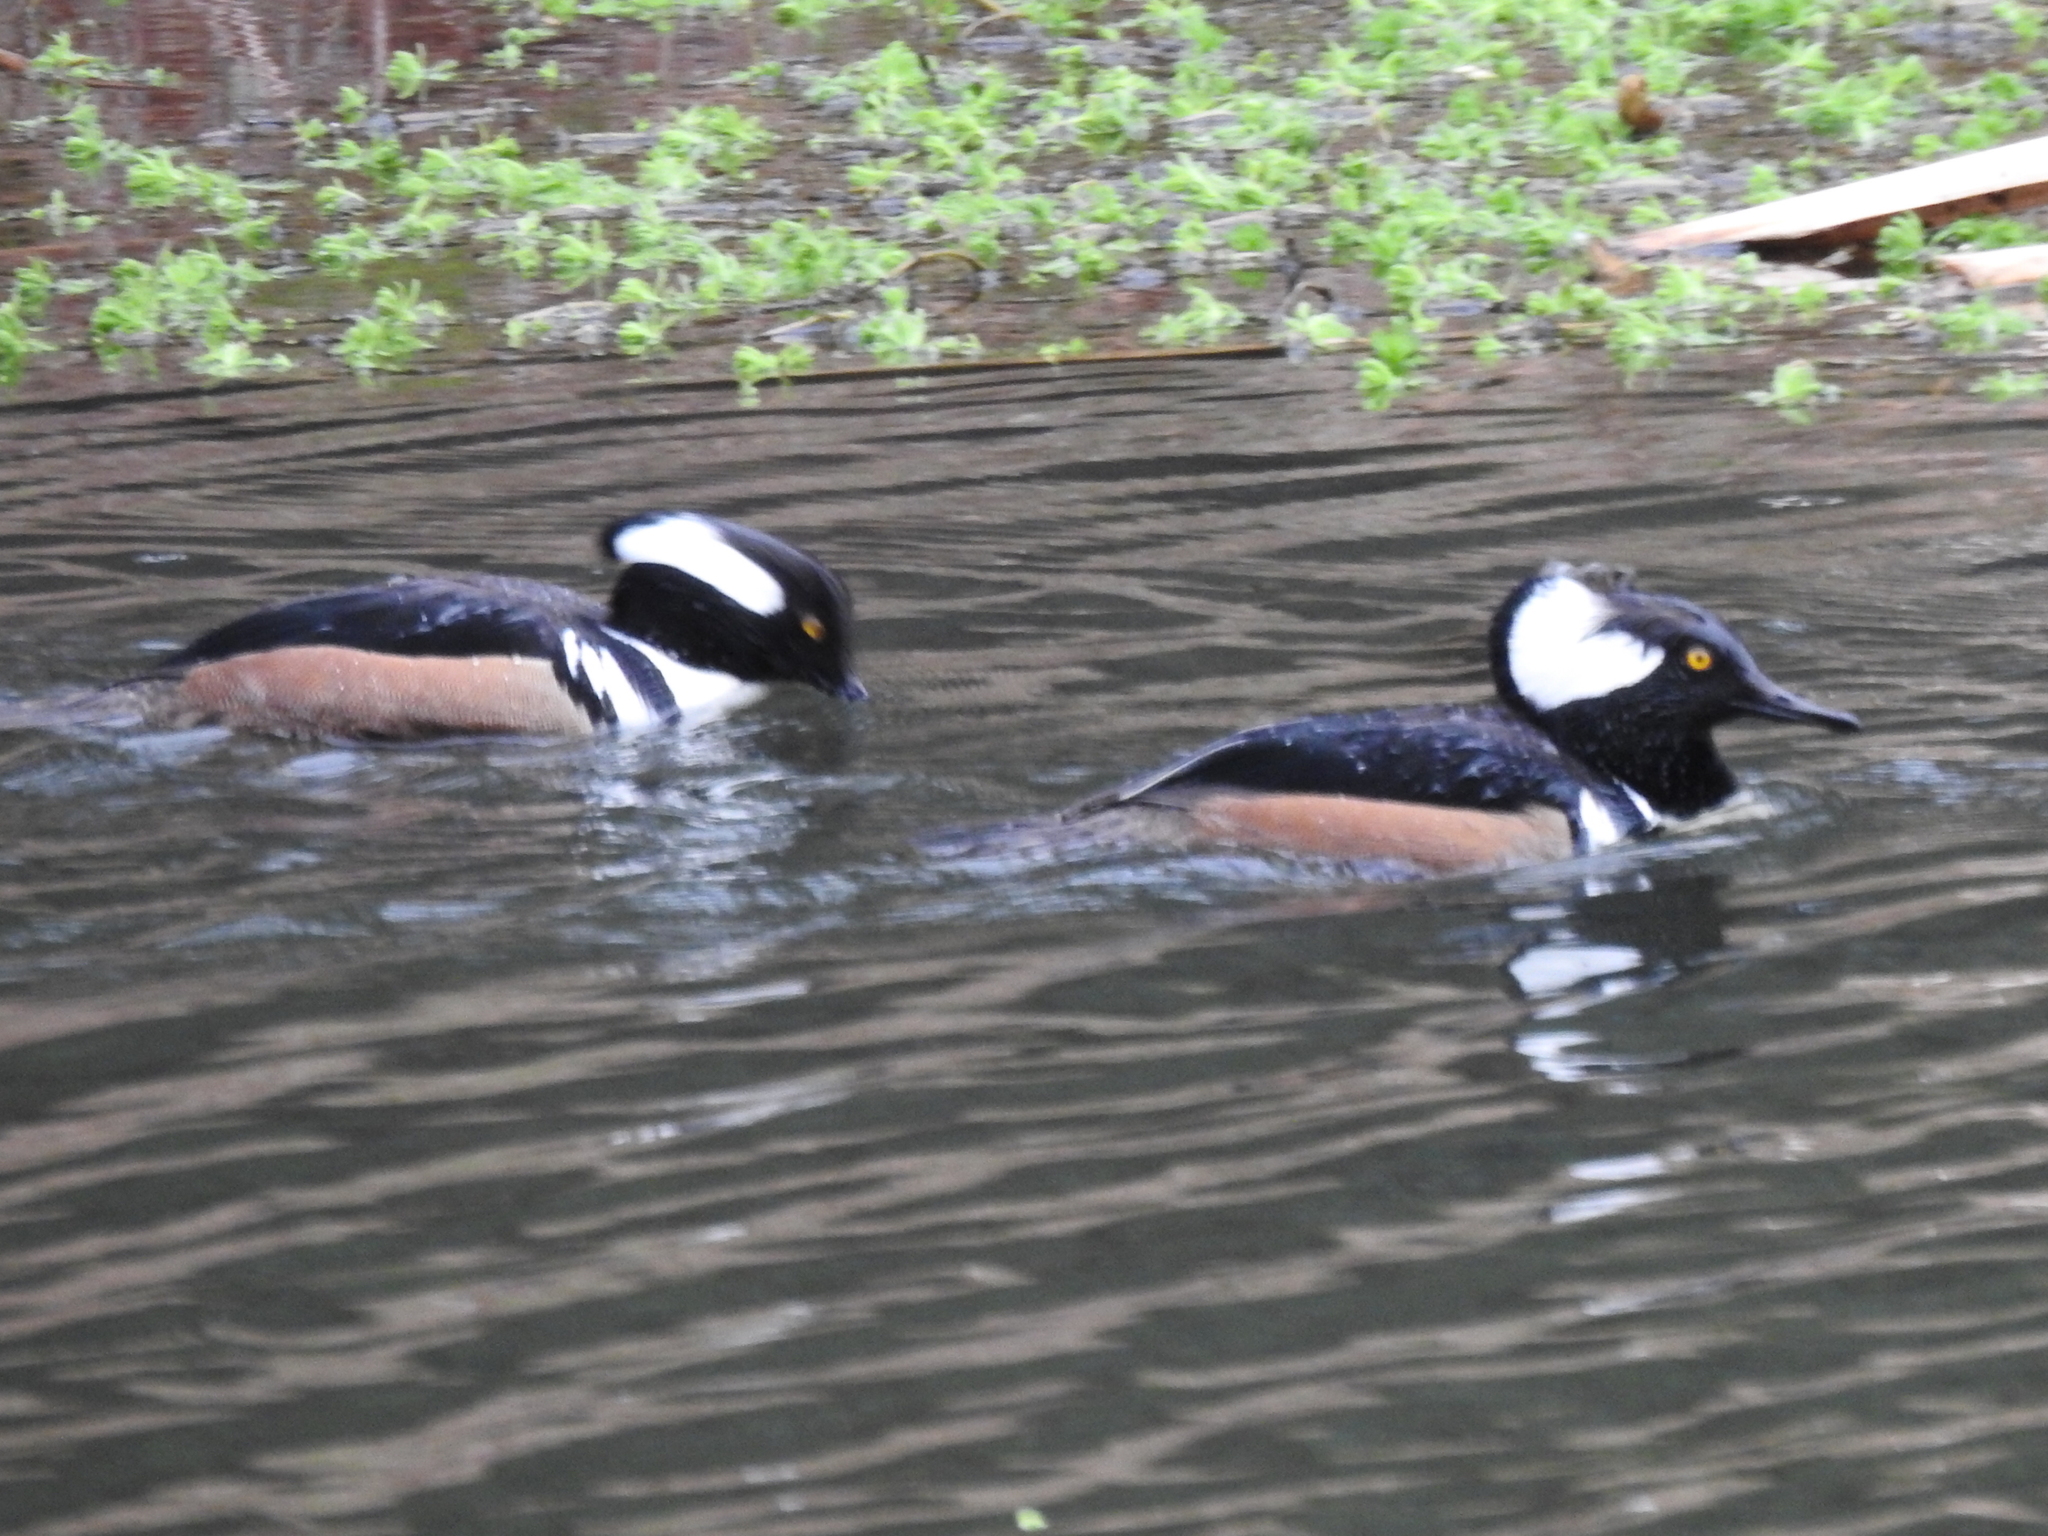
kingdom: Animalia
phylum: Chordata
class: Aves
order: Anseriformes
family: Anatidae
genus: Lophodytes
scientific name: Lophodytes cucullatus
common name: Hooded merganser
